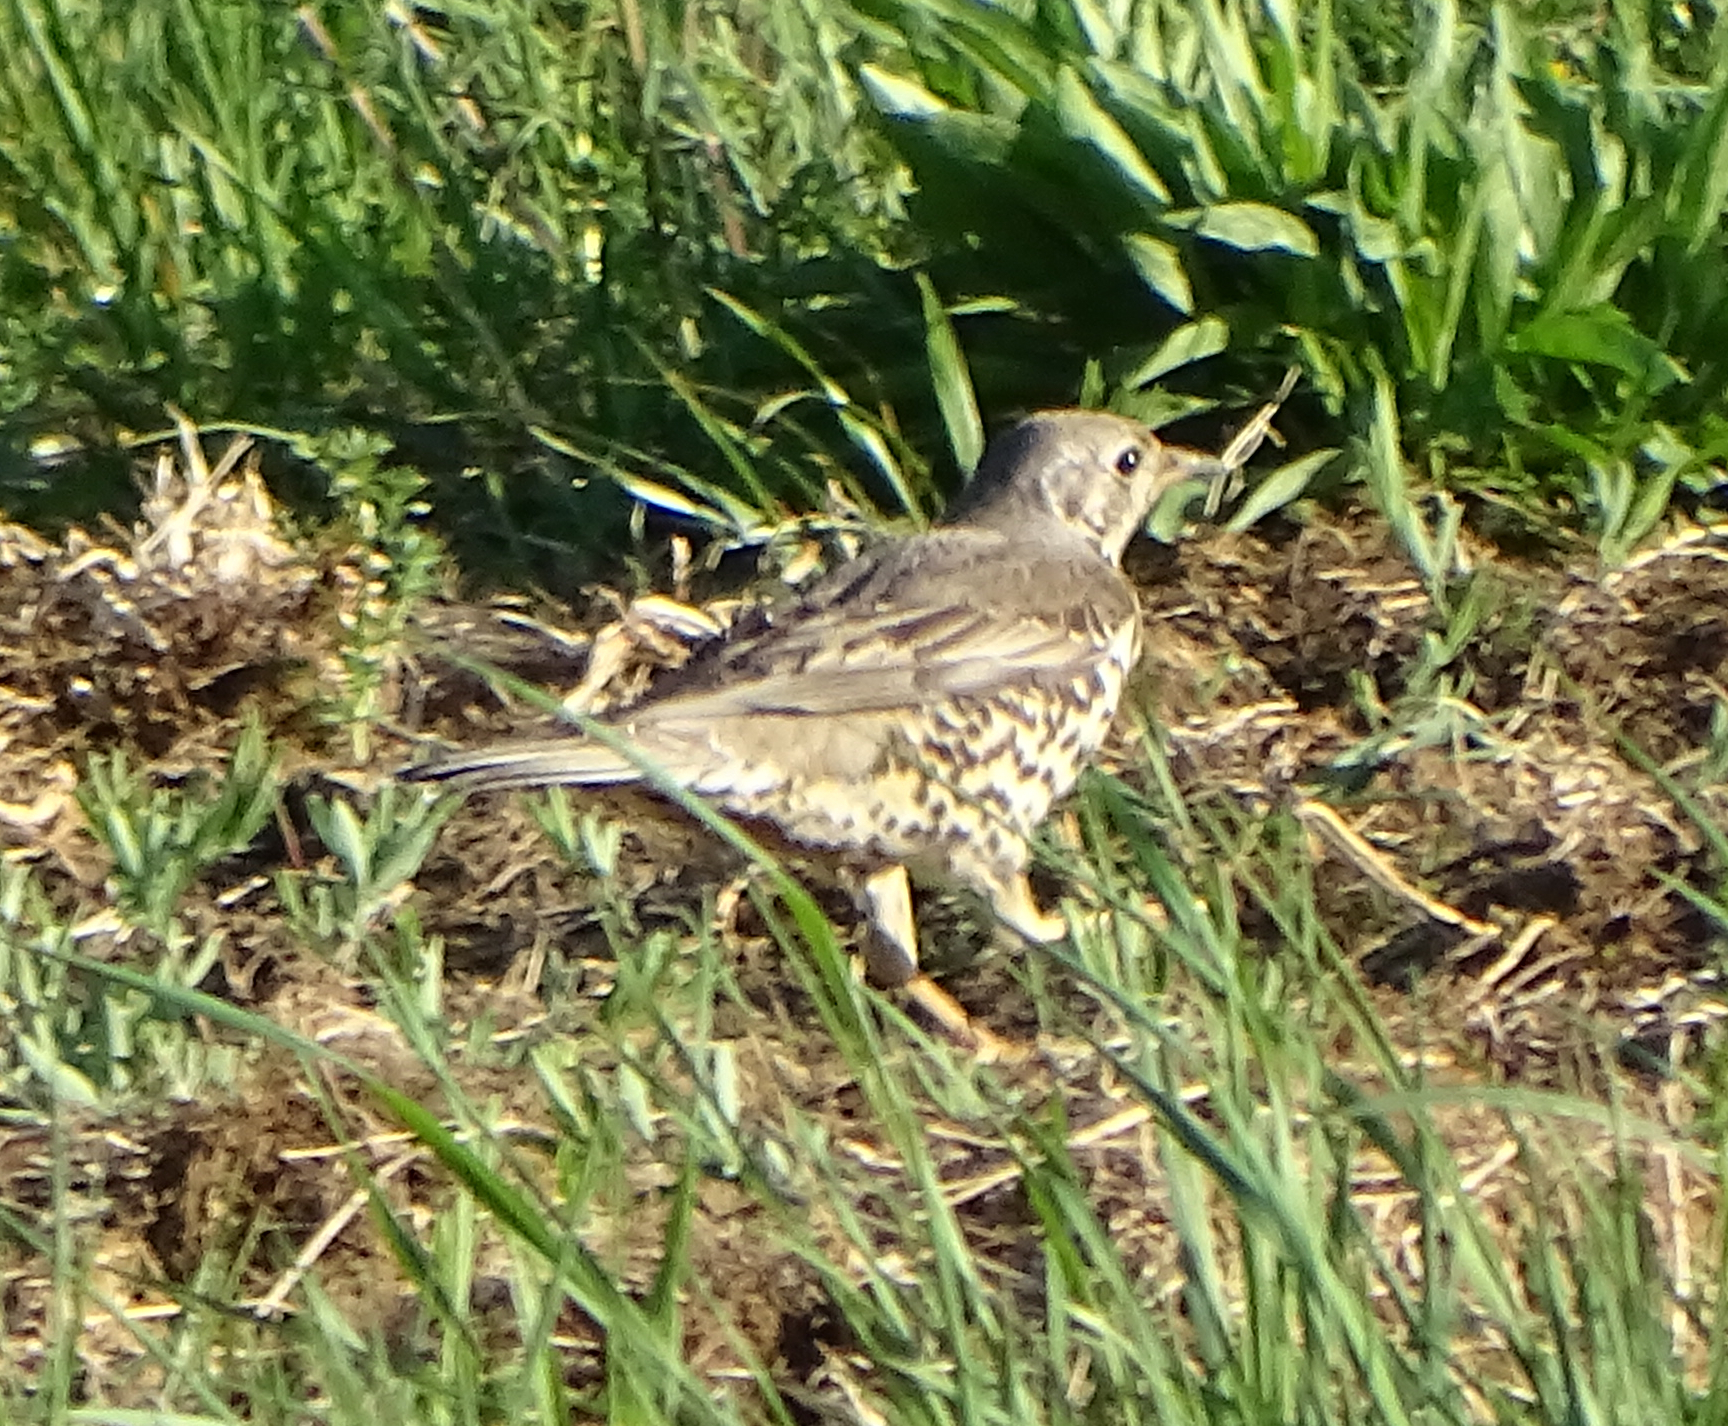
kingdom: Animalia
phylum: Chordata
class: Aves
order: Passeriformes
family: Turdidae
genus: Turdus
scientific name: Turdus viscivorus
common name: Mistle thrush
